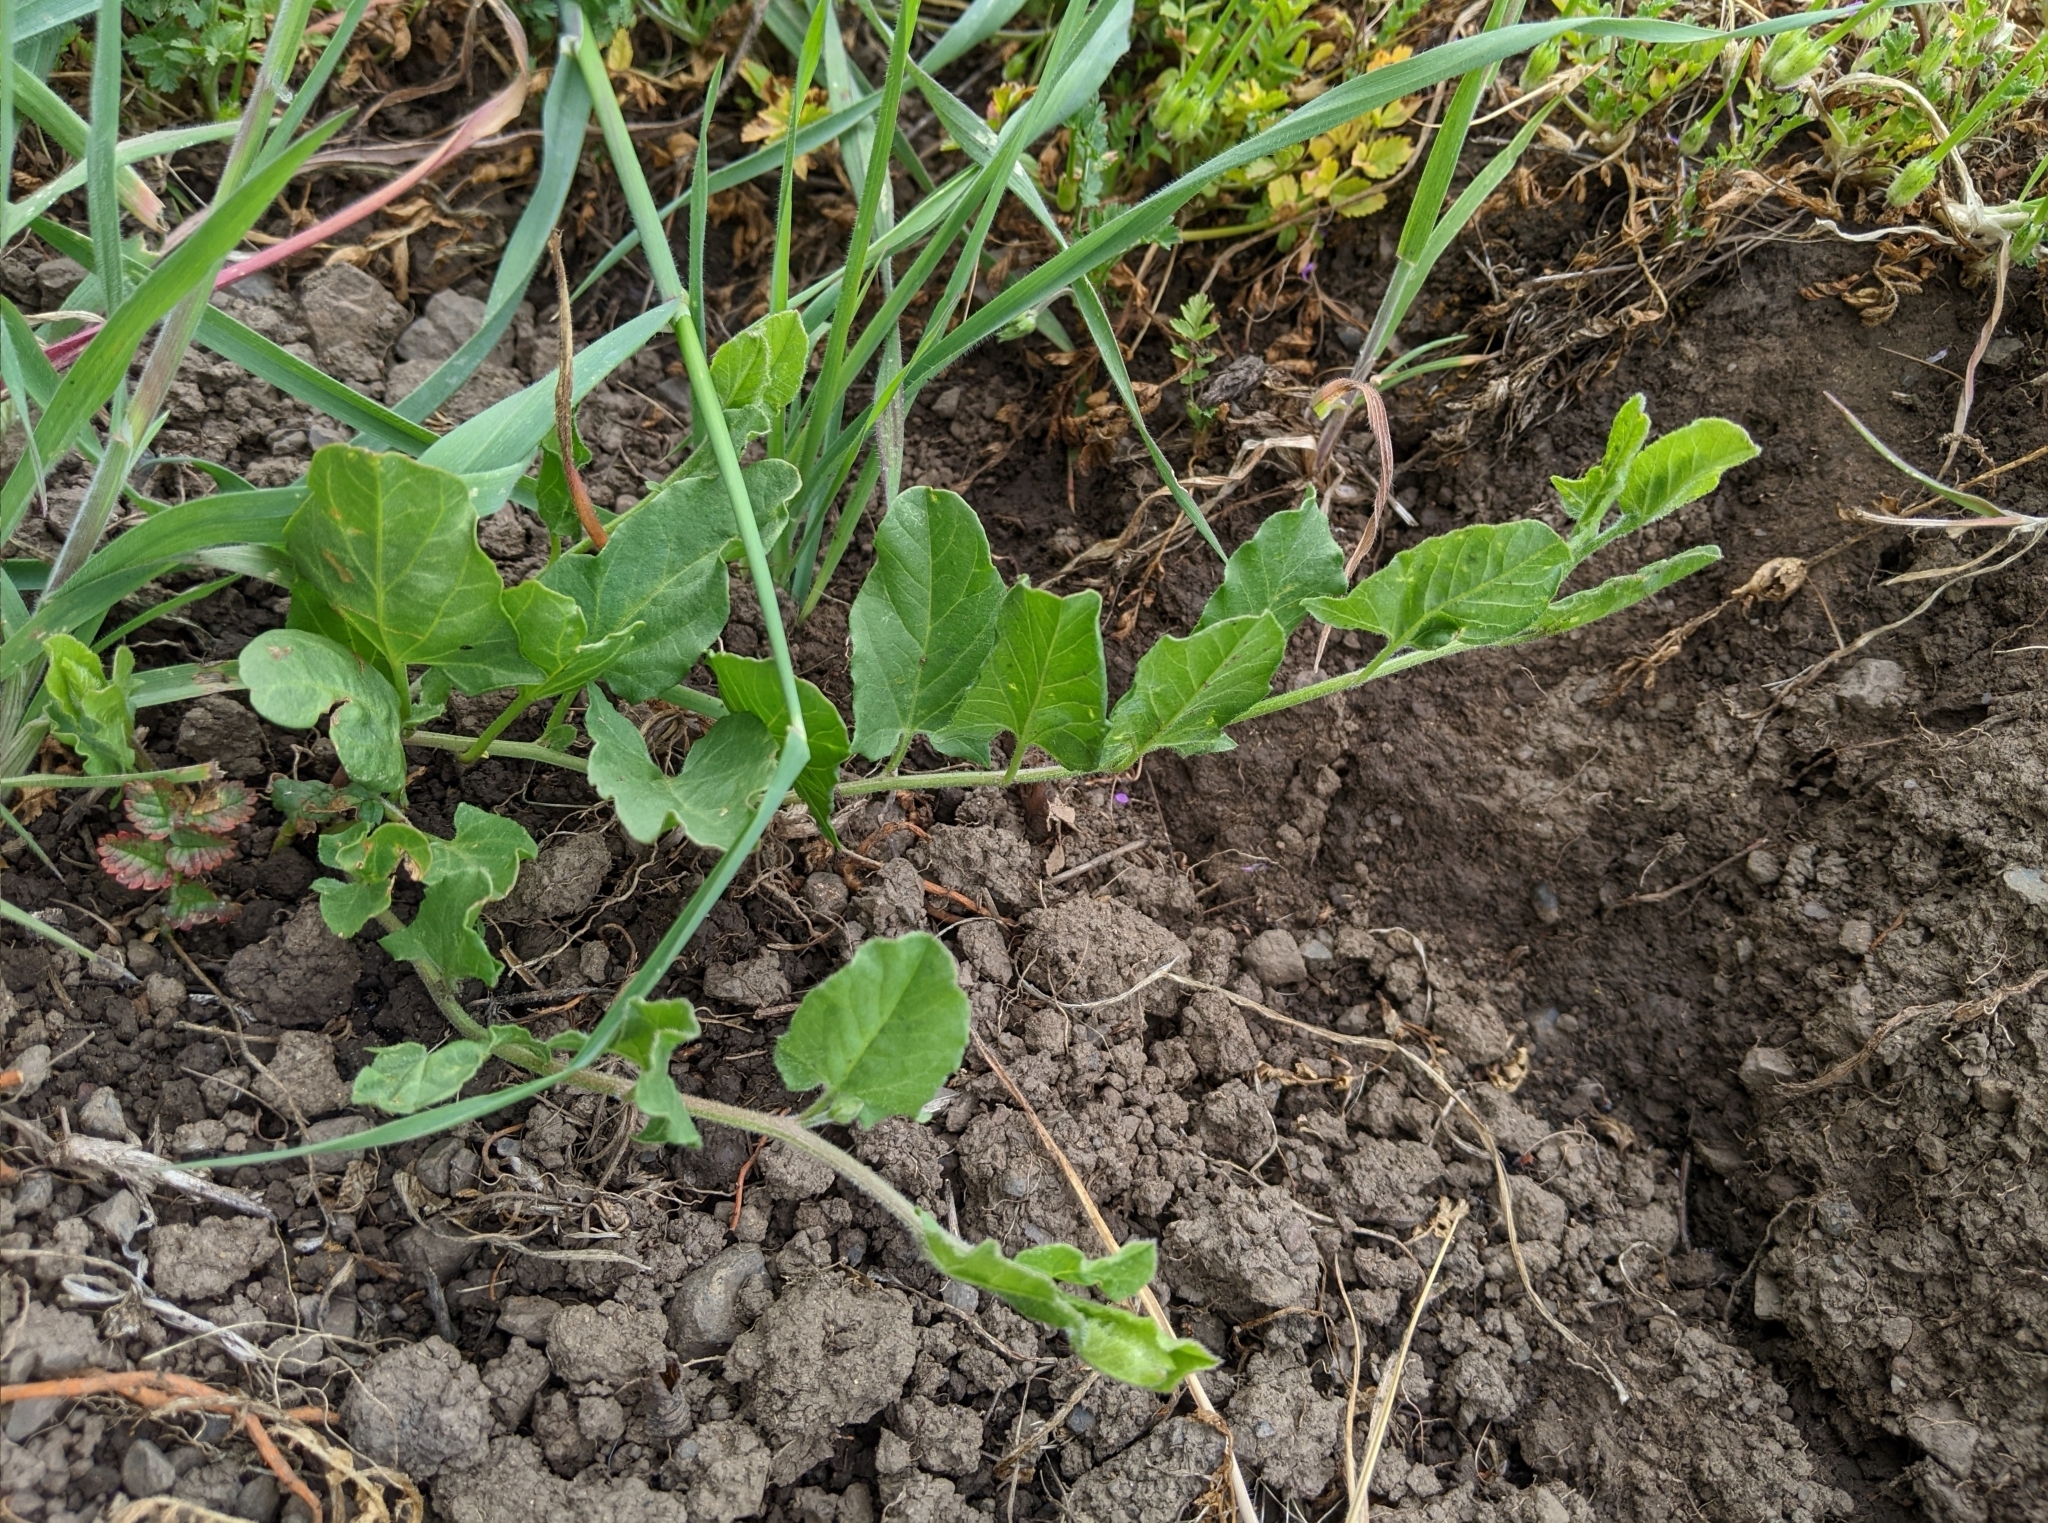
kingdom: Plantae
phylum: Tracheophyta
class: Magnoliopsida
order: Solanales
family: Convolvulaceae
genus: Convolvulus
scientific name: Convolvulus arvensis
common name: Field bindweed
